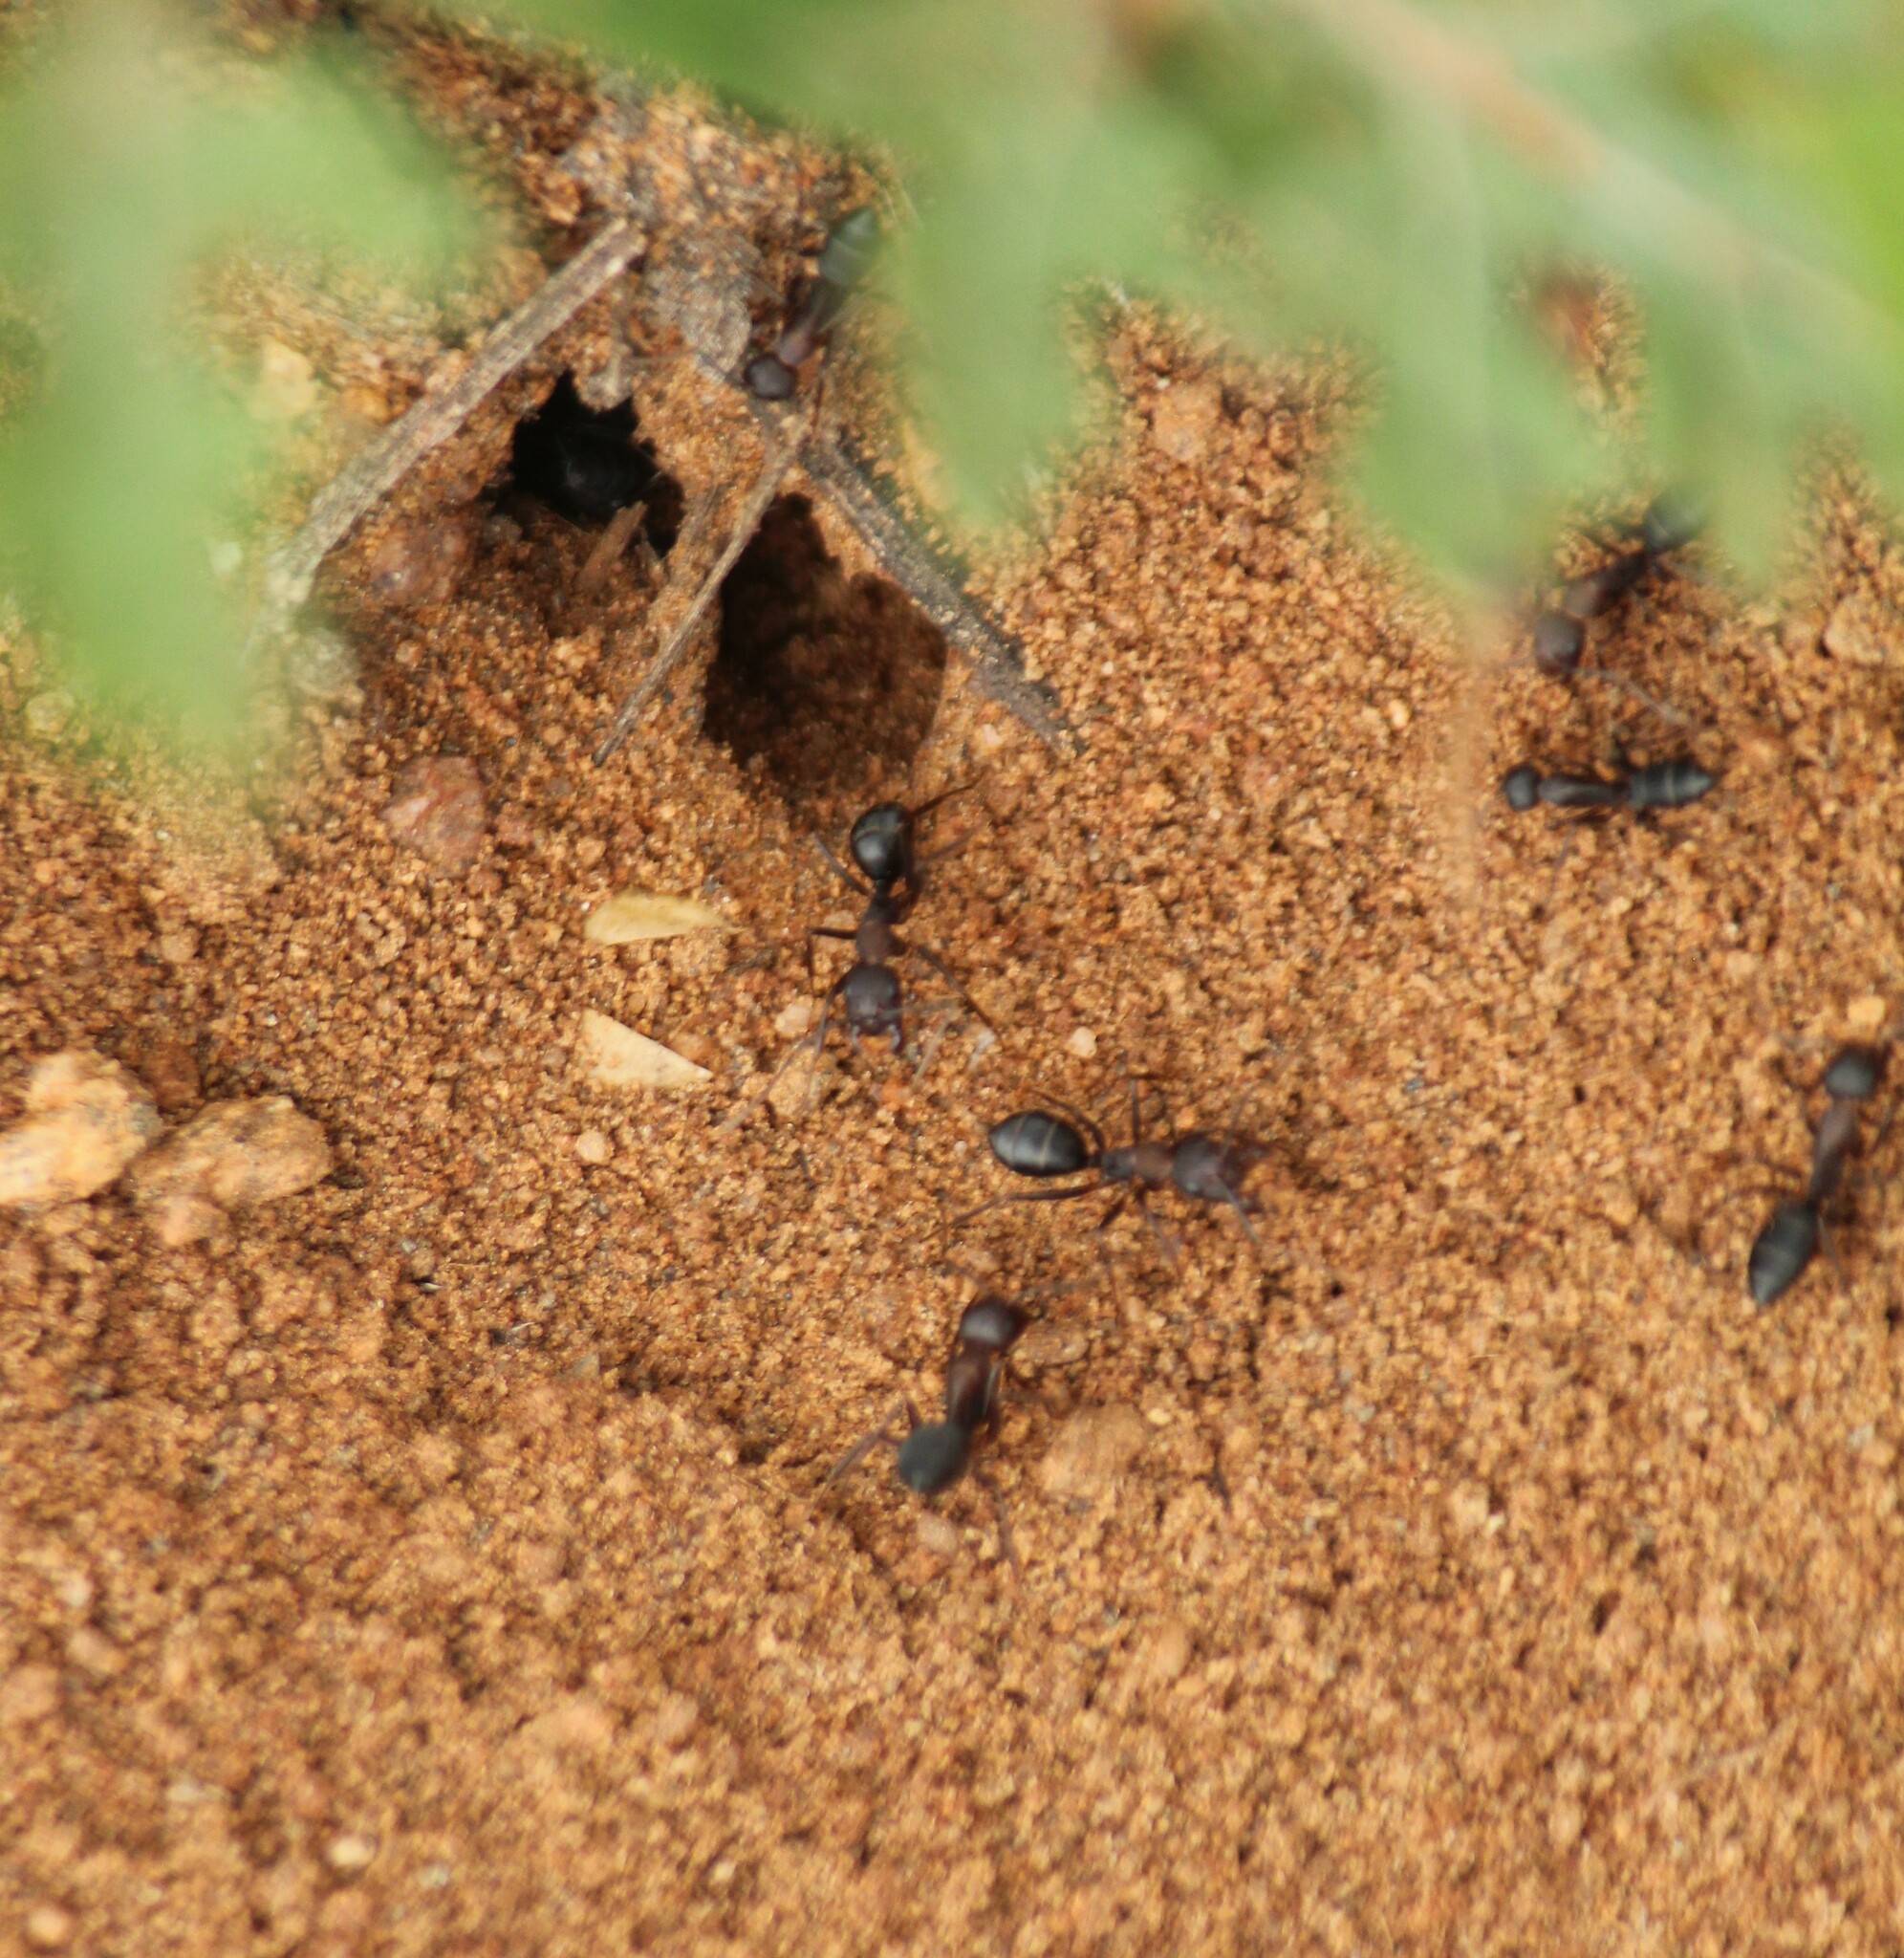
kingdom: Animalia
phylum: Arthropoda
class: Insecta
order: Hymenoptera
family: Formicidae
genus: Camponotus
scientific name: Camponotus compressus
